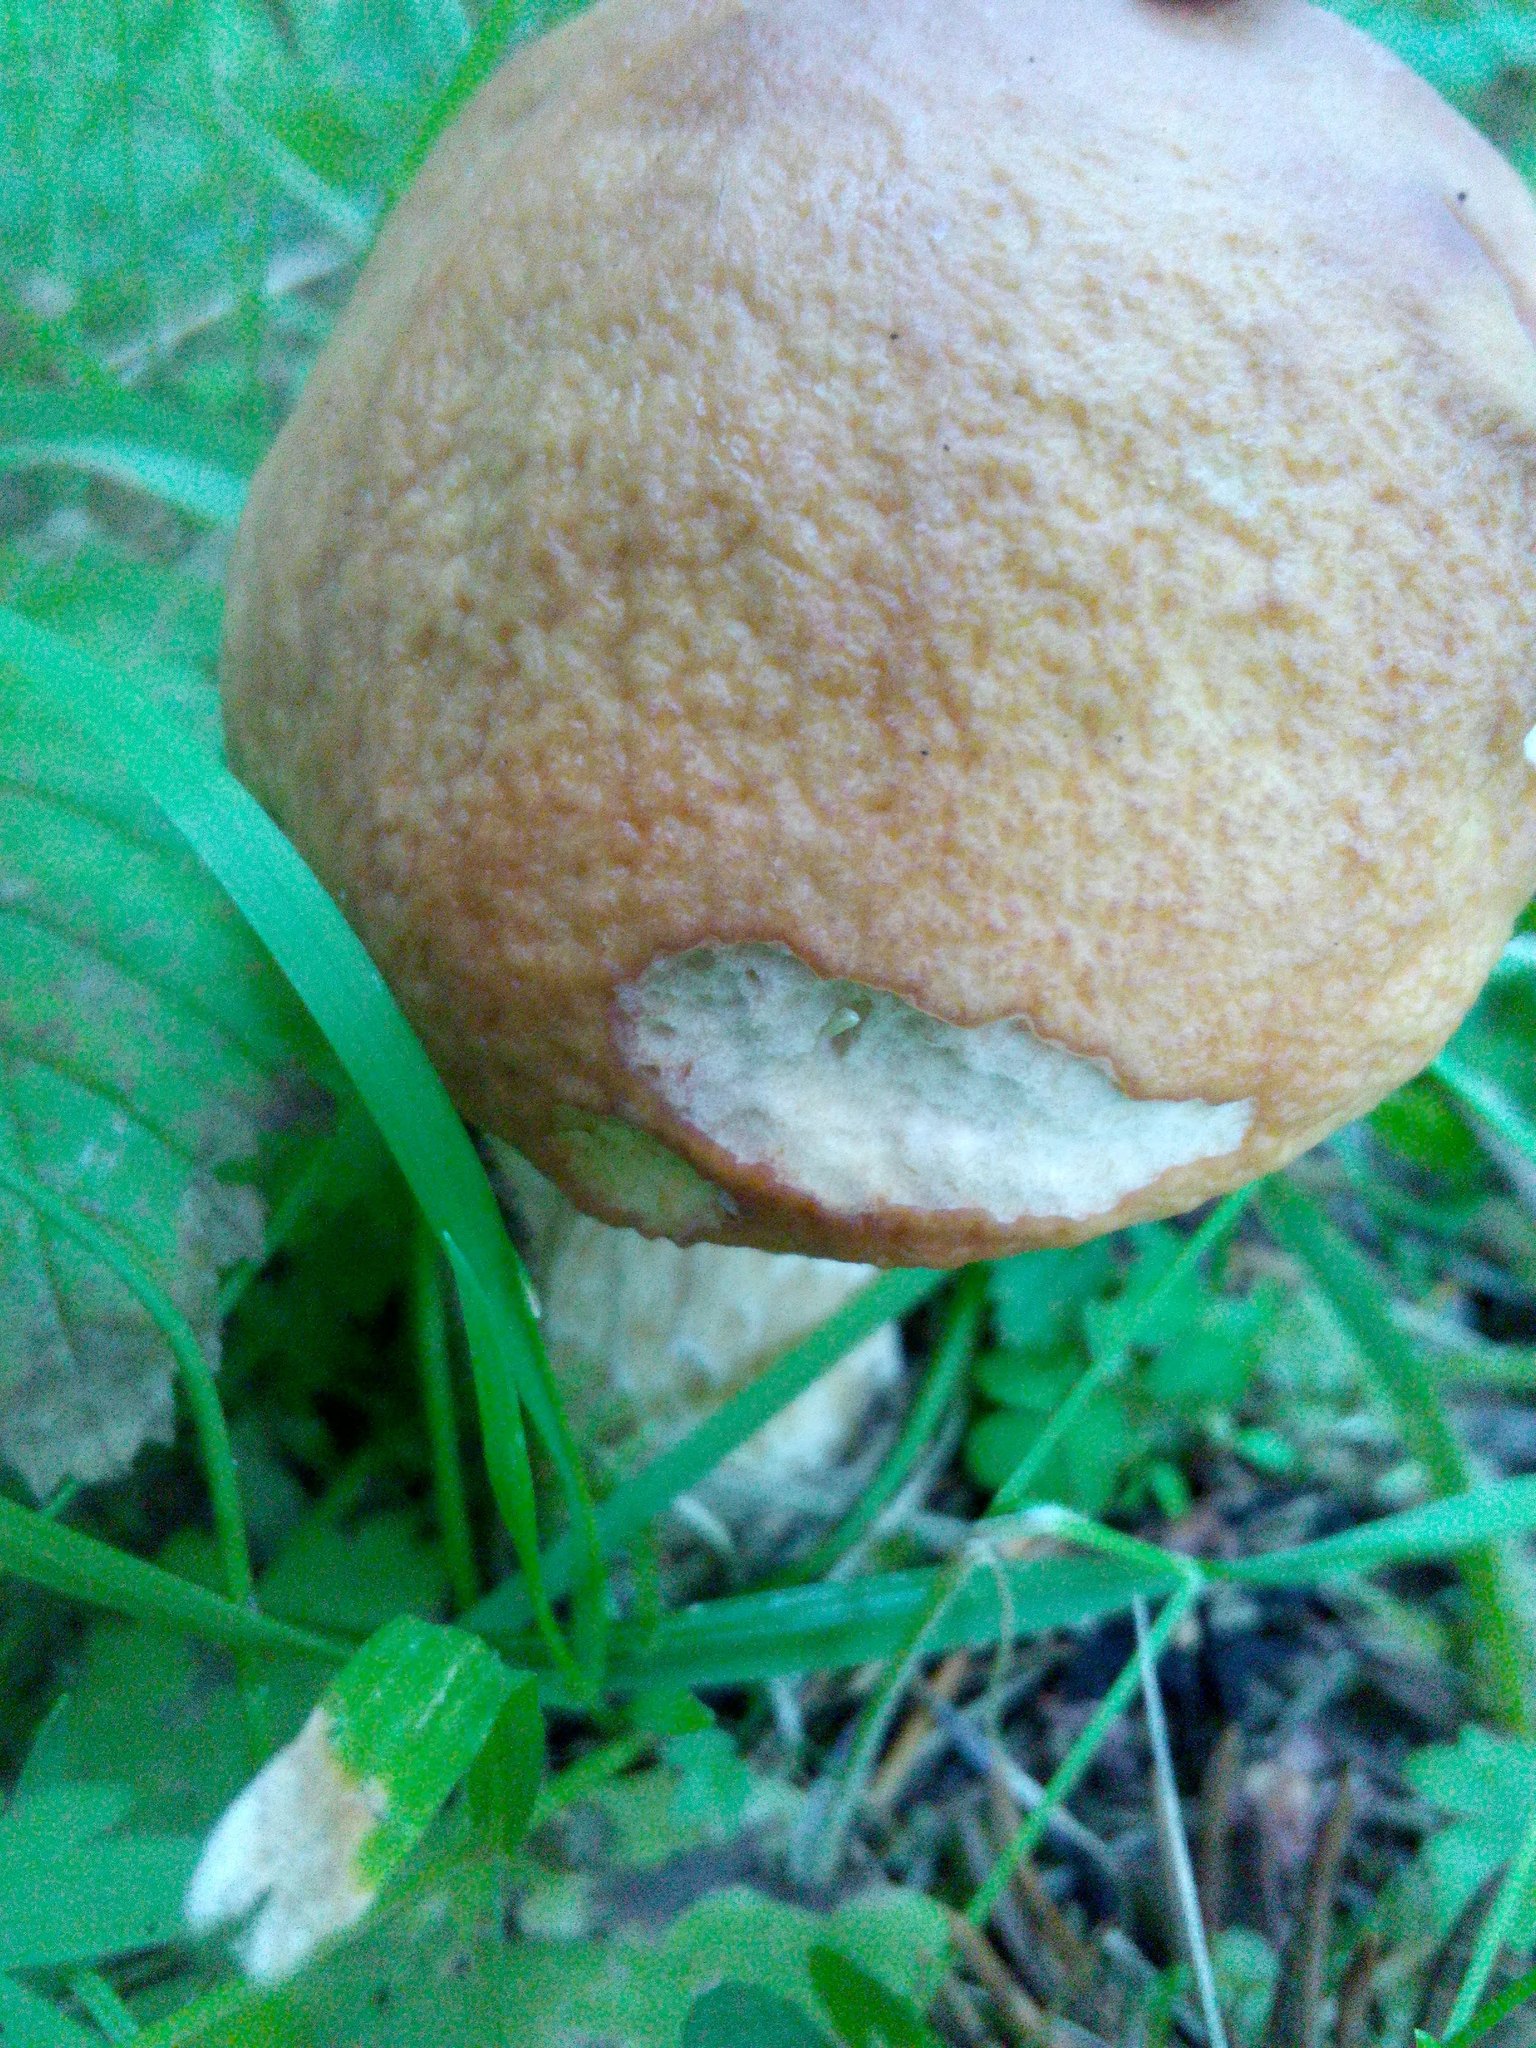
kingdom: Fungi
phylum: Basidiomycota
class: Agaricomycetes
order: Boletales
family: Boletaceae
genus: Boletus
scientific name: Boletus edulis
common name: Cep
